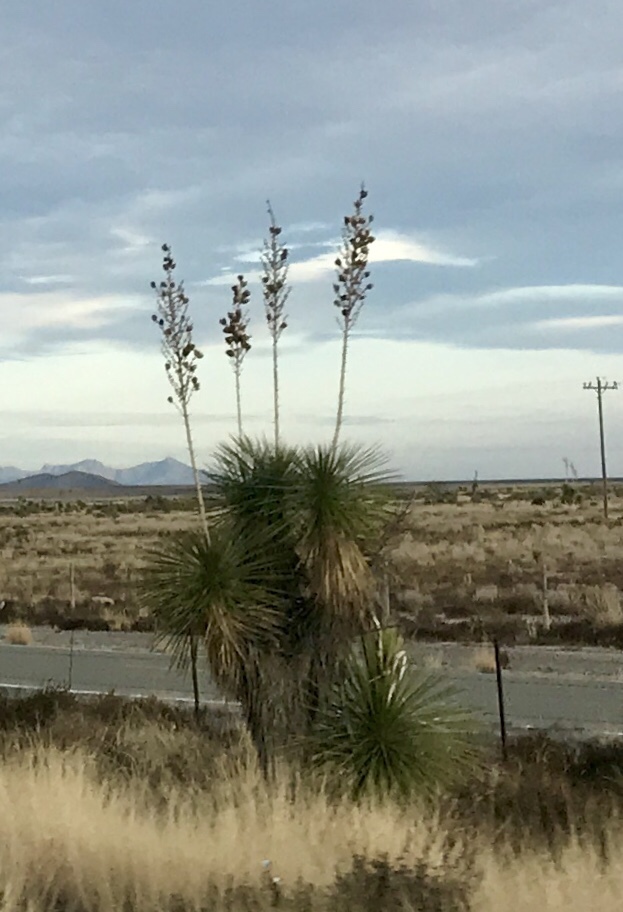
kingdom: Plantae
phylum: Tracheophyta
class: Liliopsida
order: Asparagales
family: Asparagaceae
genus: Yucca
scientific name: Yucca elata
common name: Palmella
